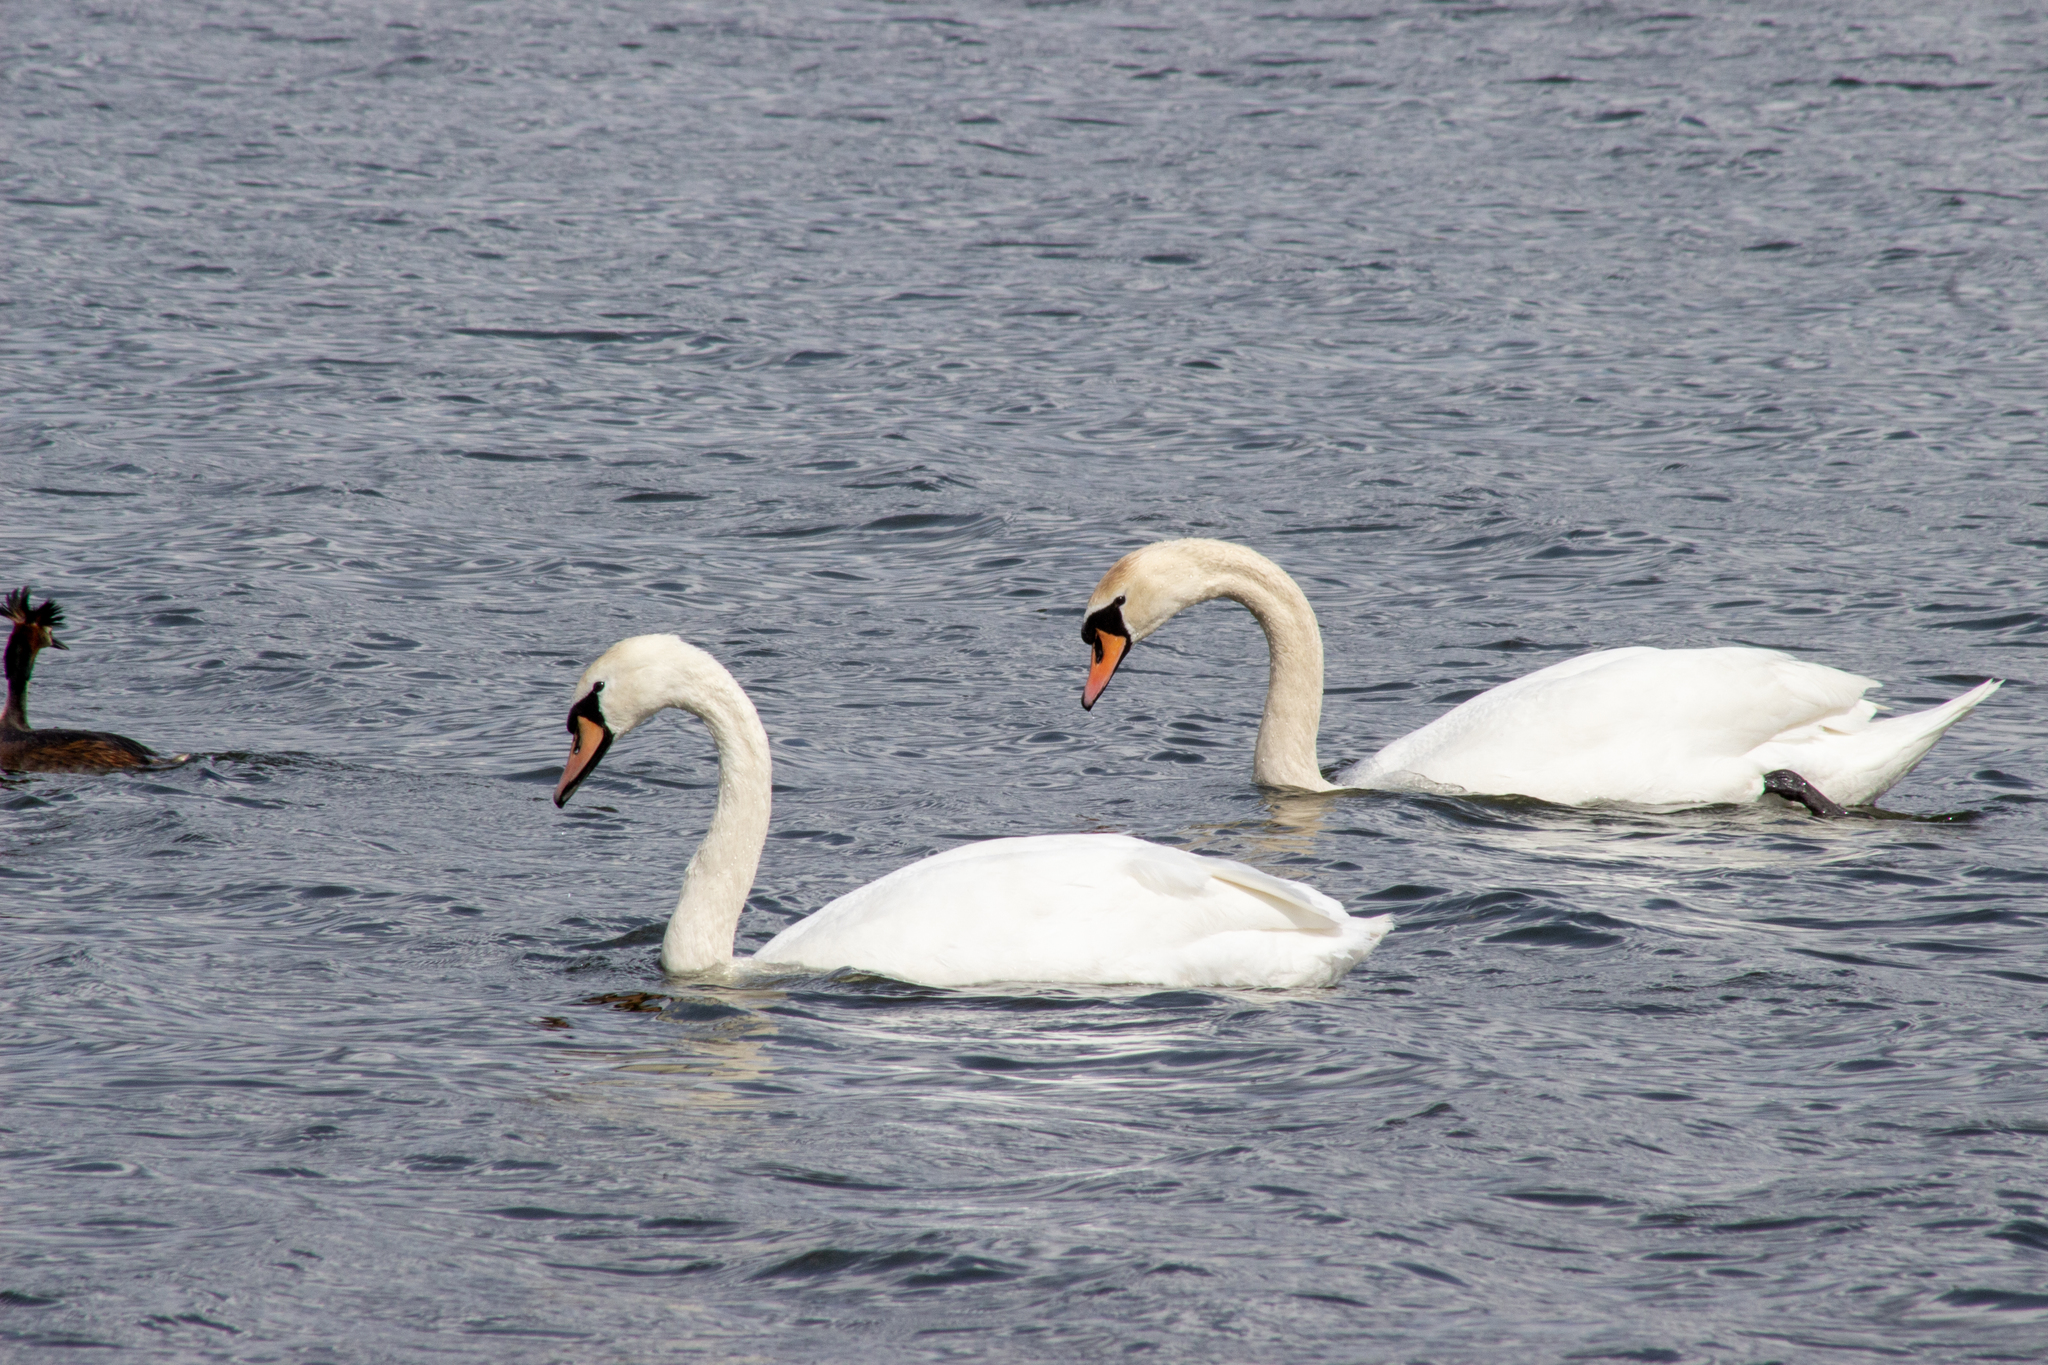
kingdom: Animalia
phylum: Chordata
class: Aves
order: Anseriformes
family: Anatidae
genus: Cygnus
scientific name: Cygnus olor
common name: Mute swan
